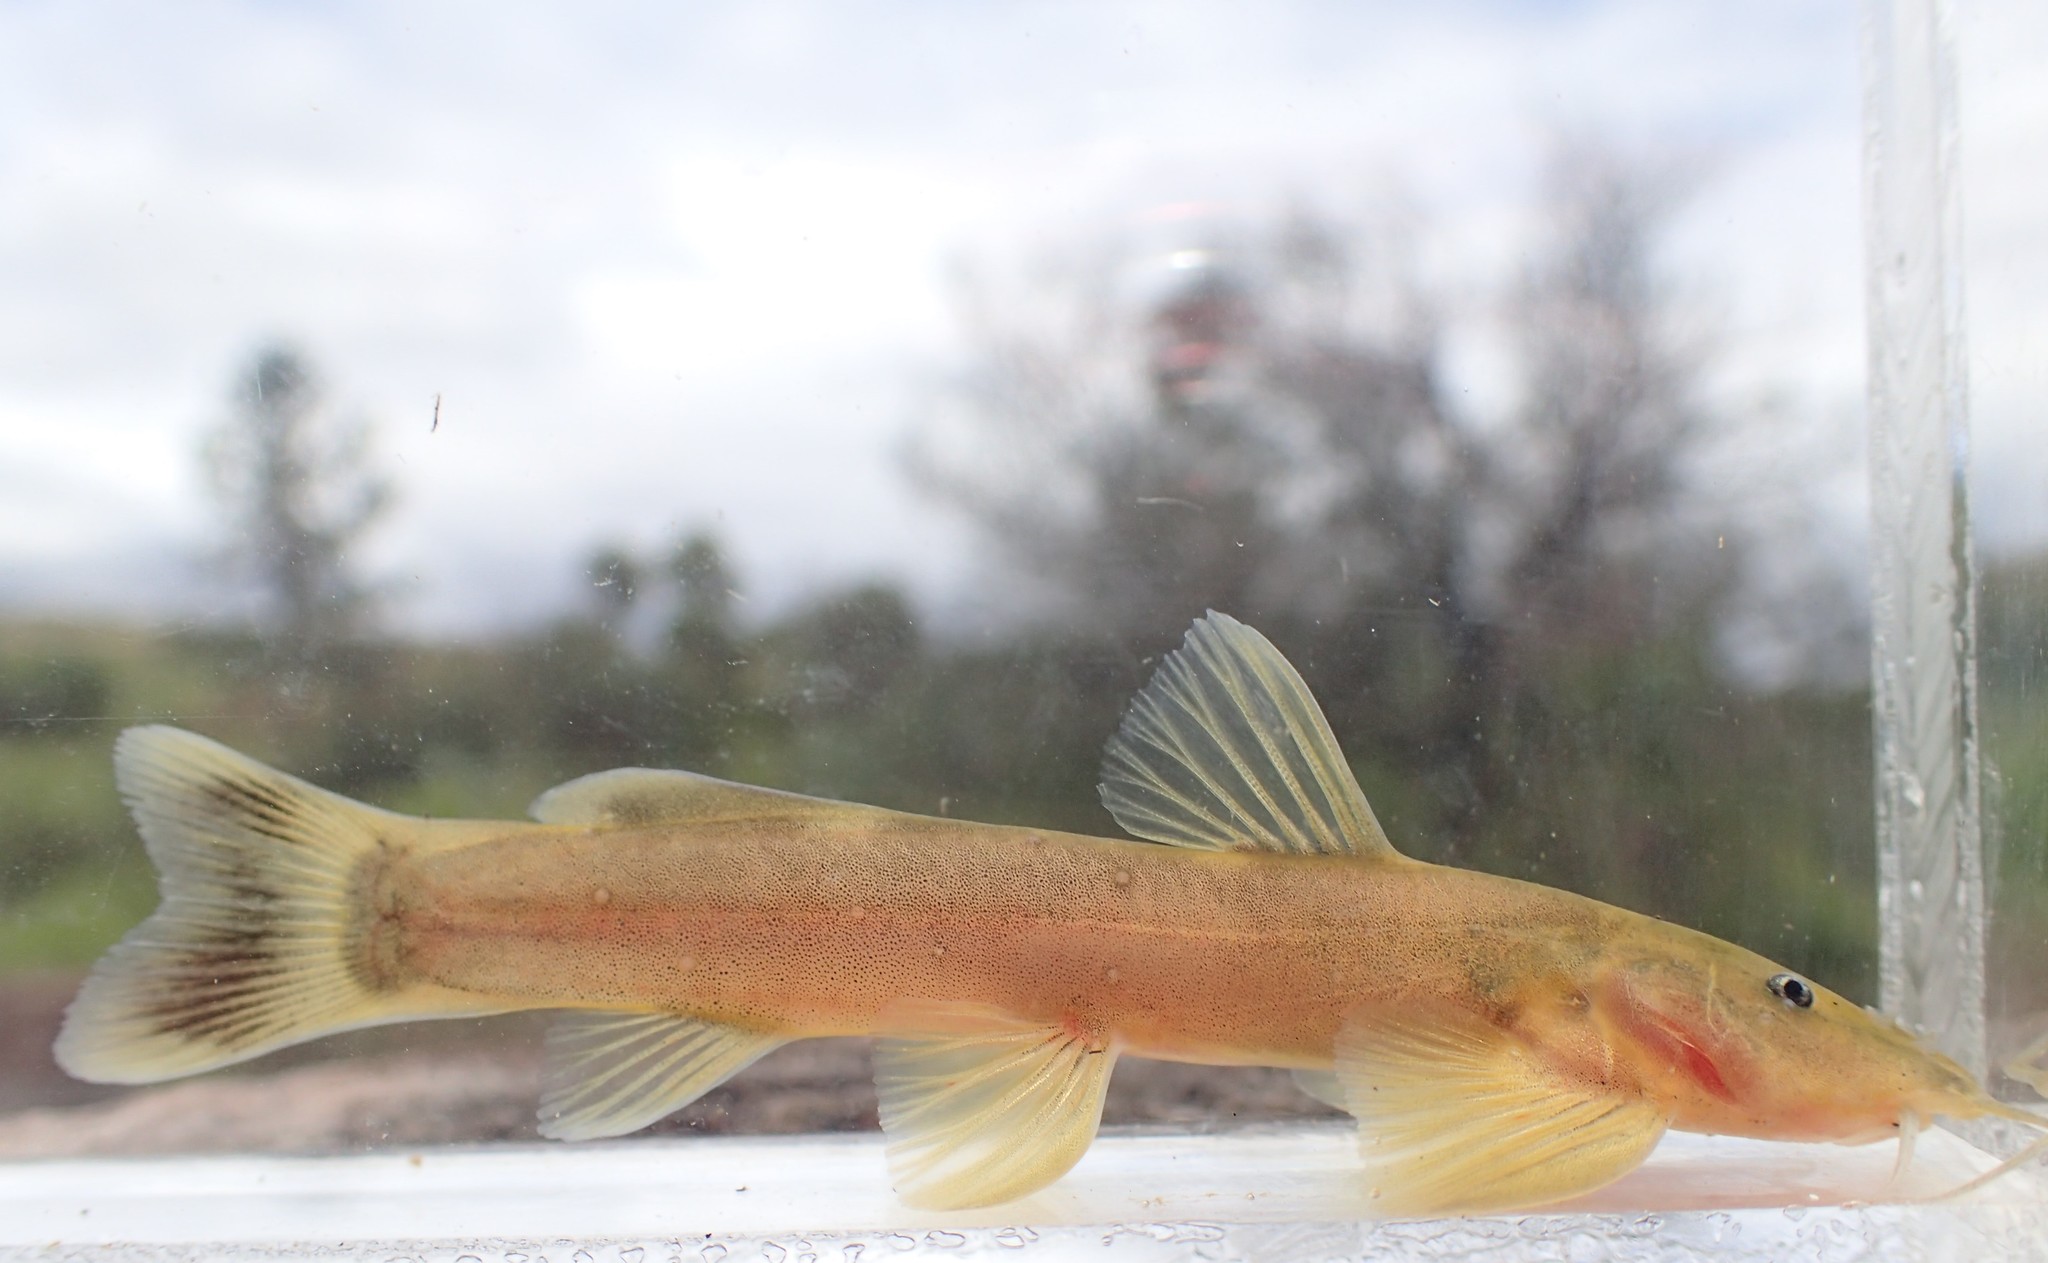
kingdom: Animalia
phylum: Chordata
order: Siluriformes
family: Amphiliidae
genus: Amphilius
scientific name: Amphilius uranoscopus
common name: Stargazer mountain catfish
